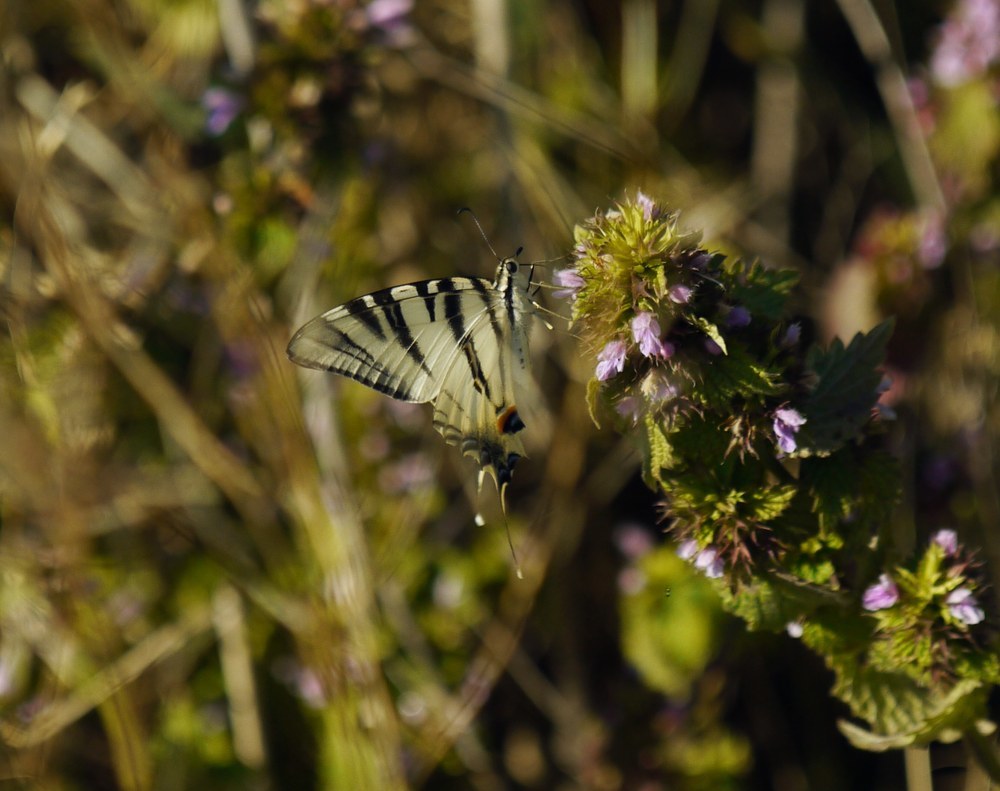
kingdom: Animalia
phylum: Arthropoda
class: Insecta
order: Lepidoptera
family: Papilionidae
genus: Iphiclides
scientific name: Iphiclides podalirius
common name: Scarce swallowtail
